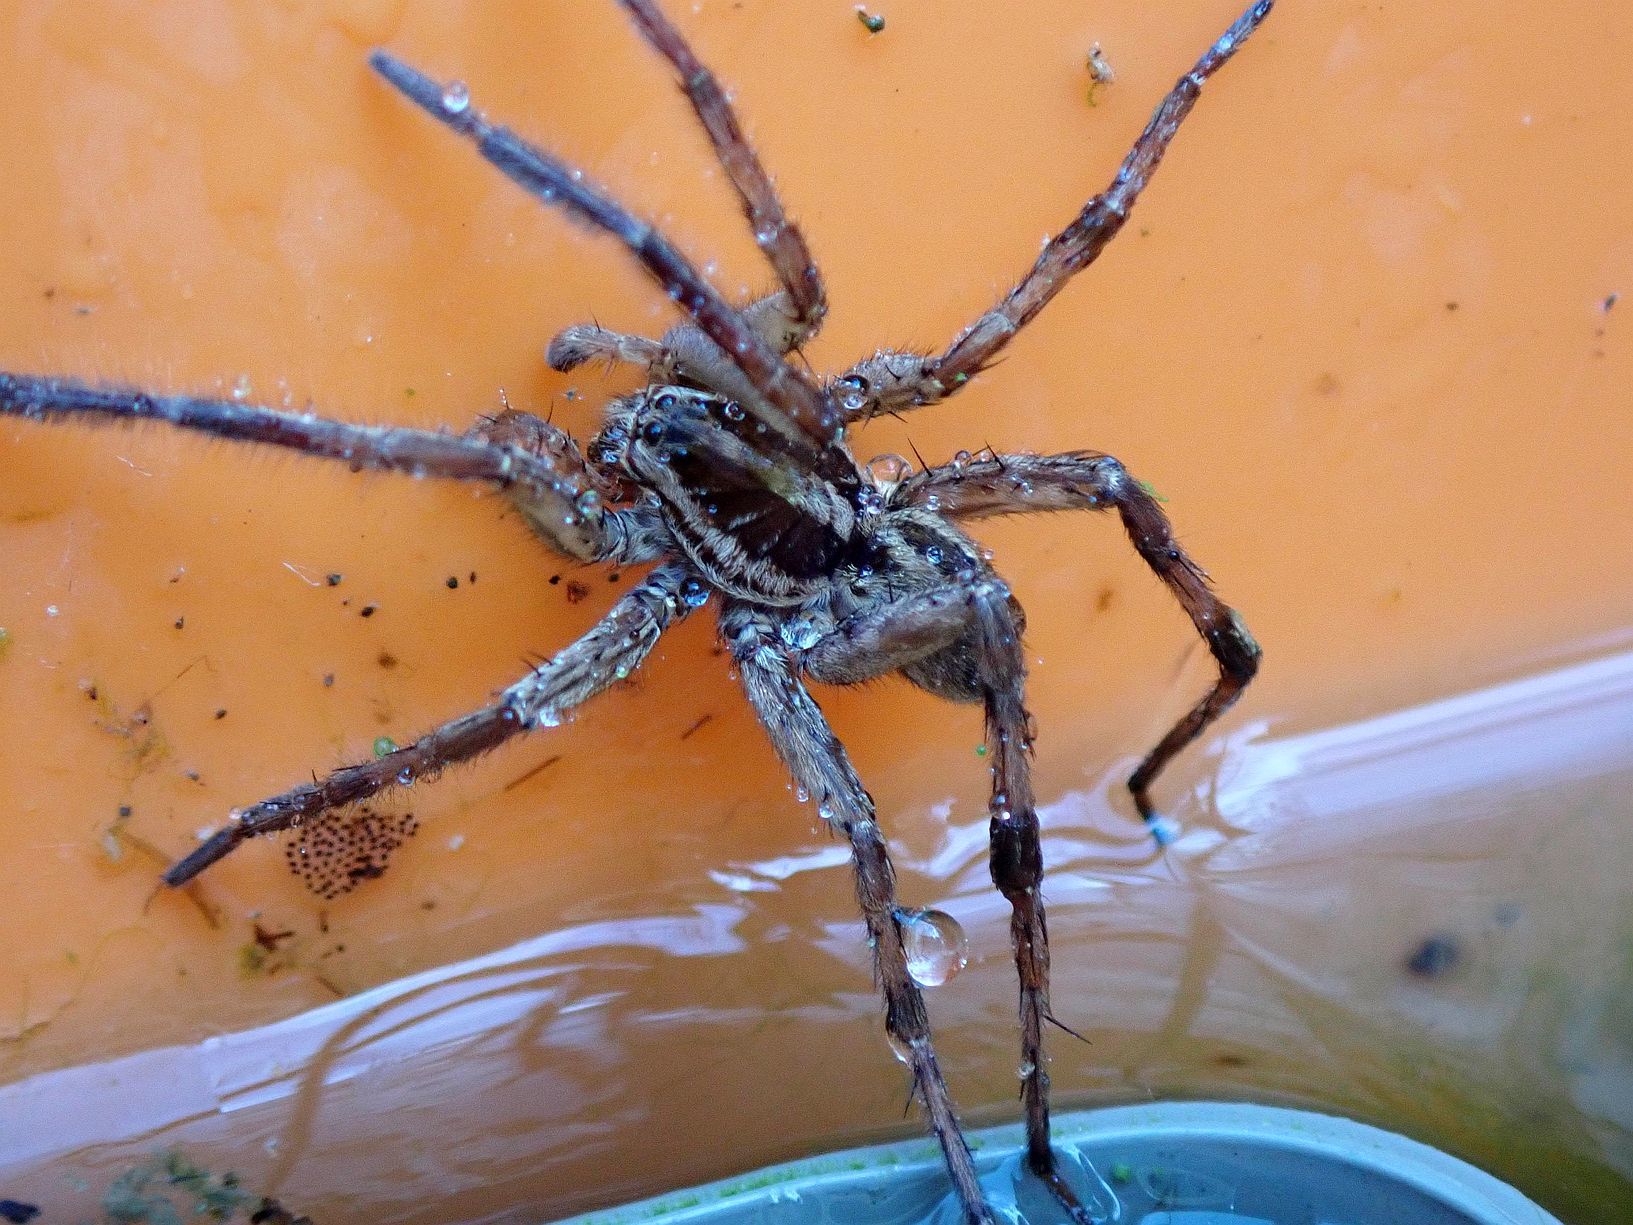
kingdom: Animalia
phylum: Arthropoda
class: Arachnida
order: Araneae
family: Lycosidae
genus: Hogna
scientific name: Hogna radiata
